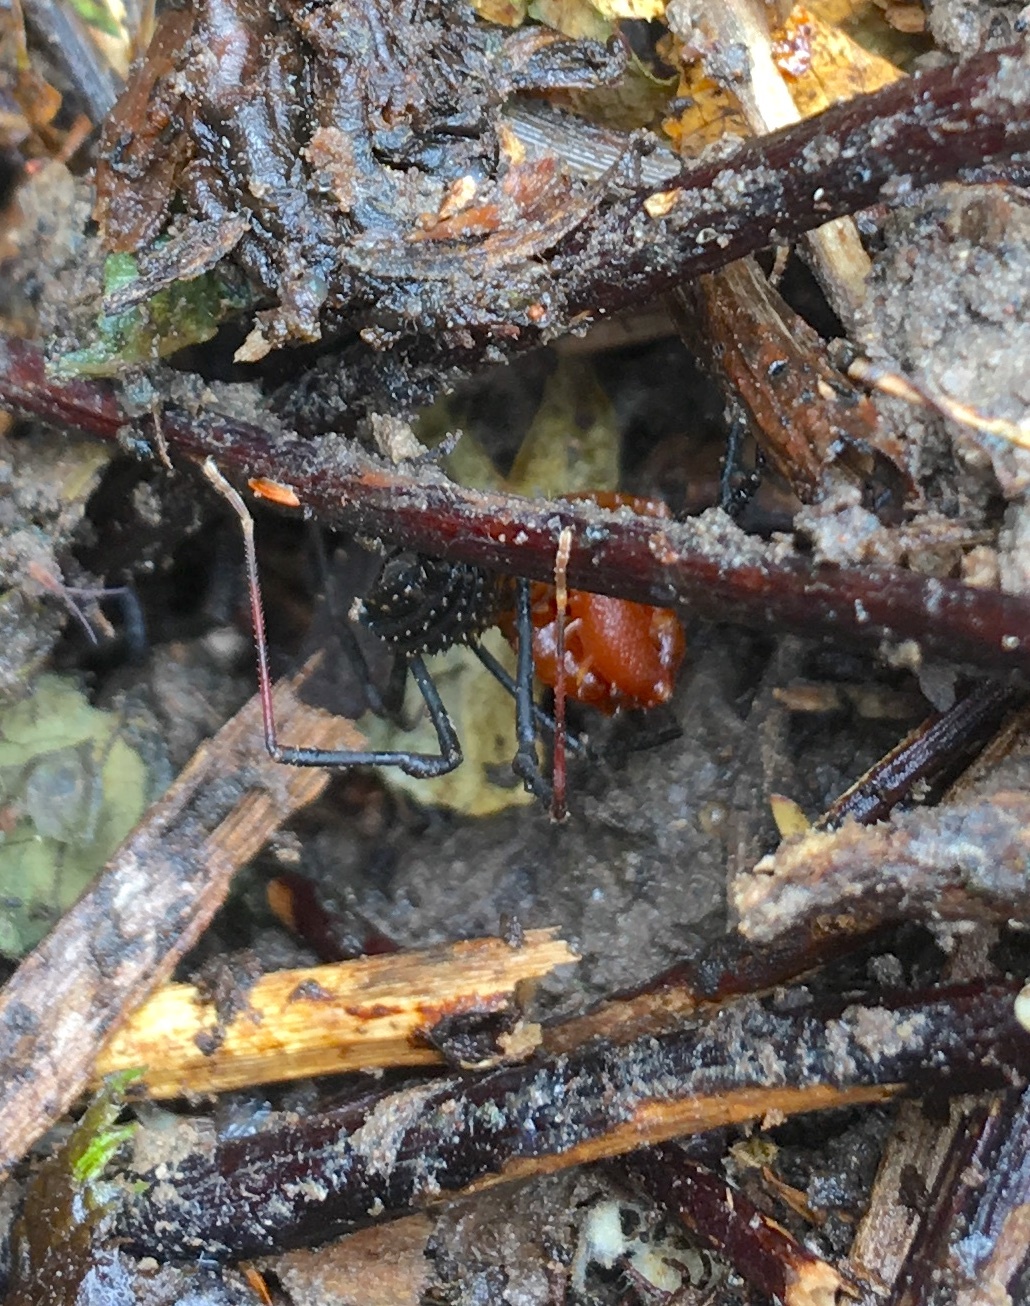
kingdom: Animalia
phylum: Arthropoda
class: Arachnida
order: Opiliones
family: Triaenonychidae
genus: Sorensenella
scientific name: Sorensenella prehensor
